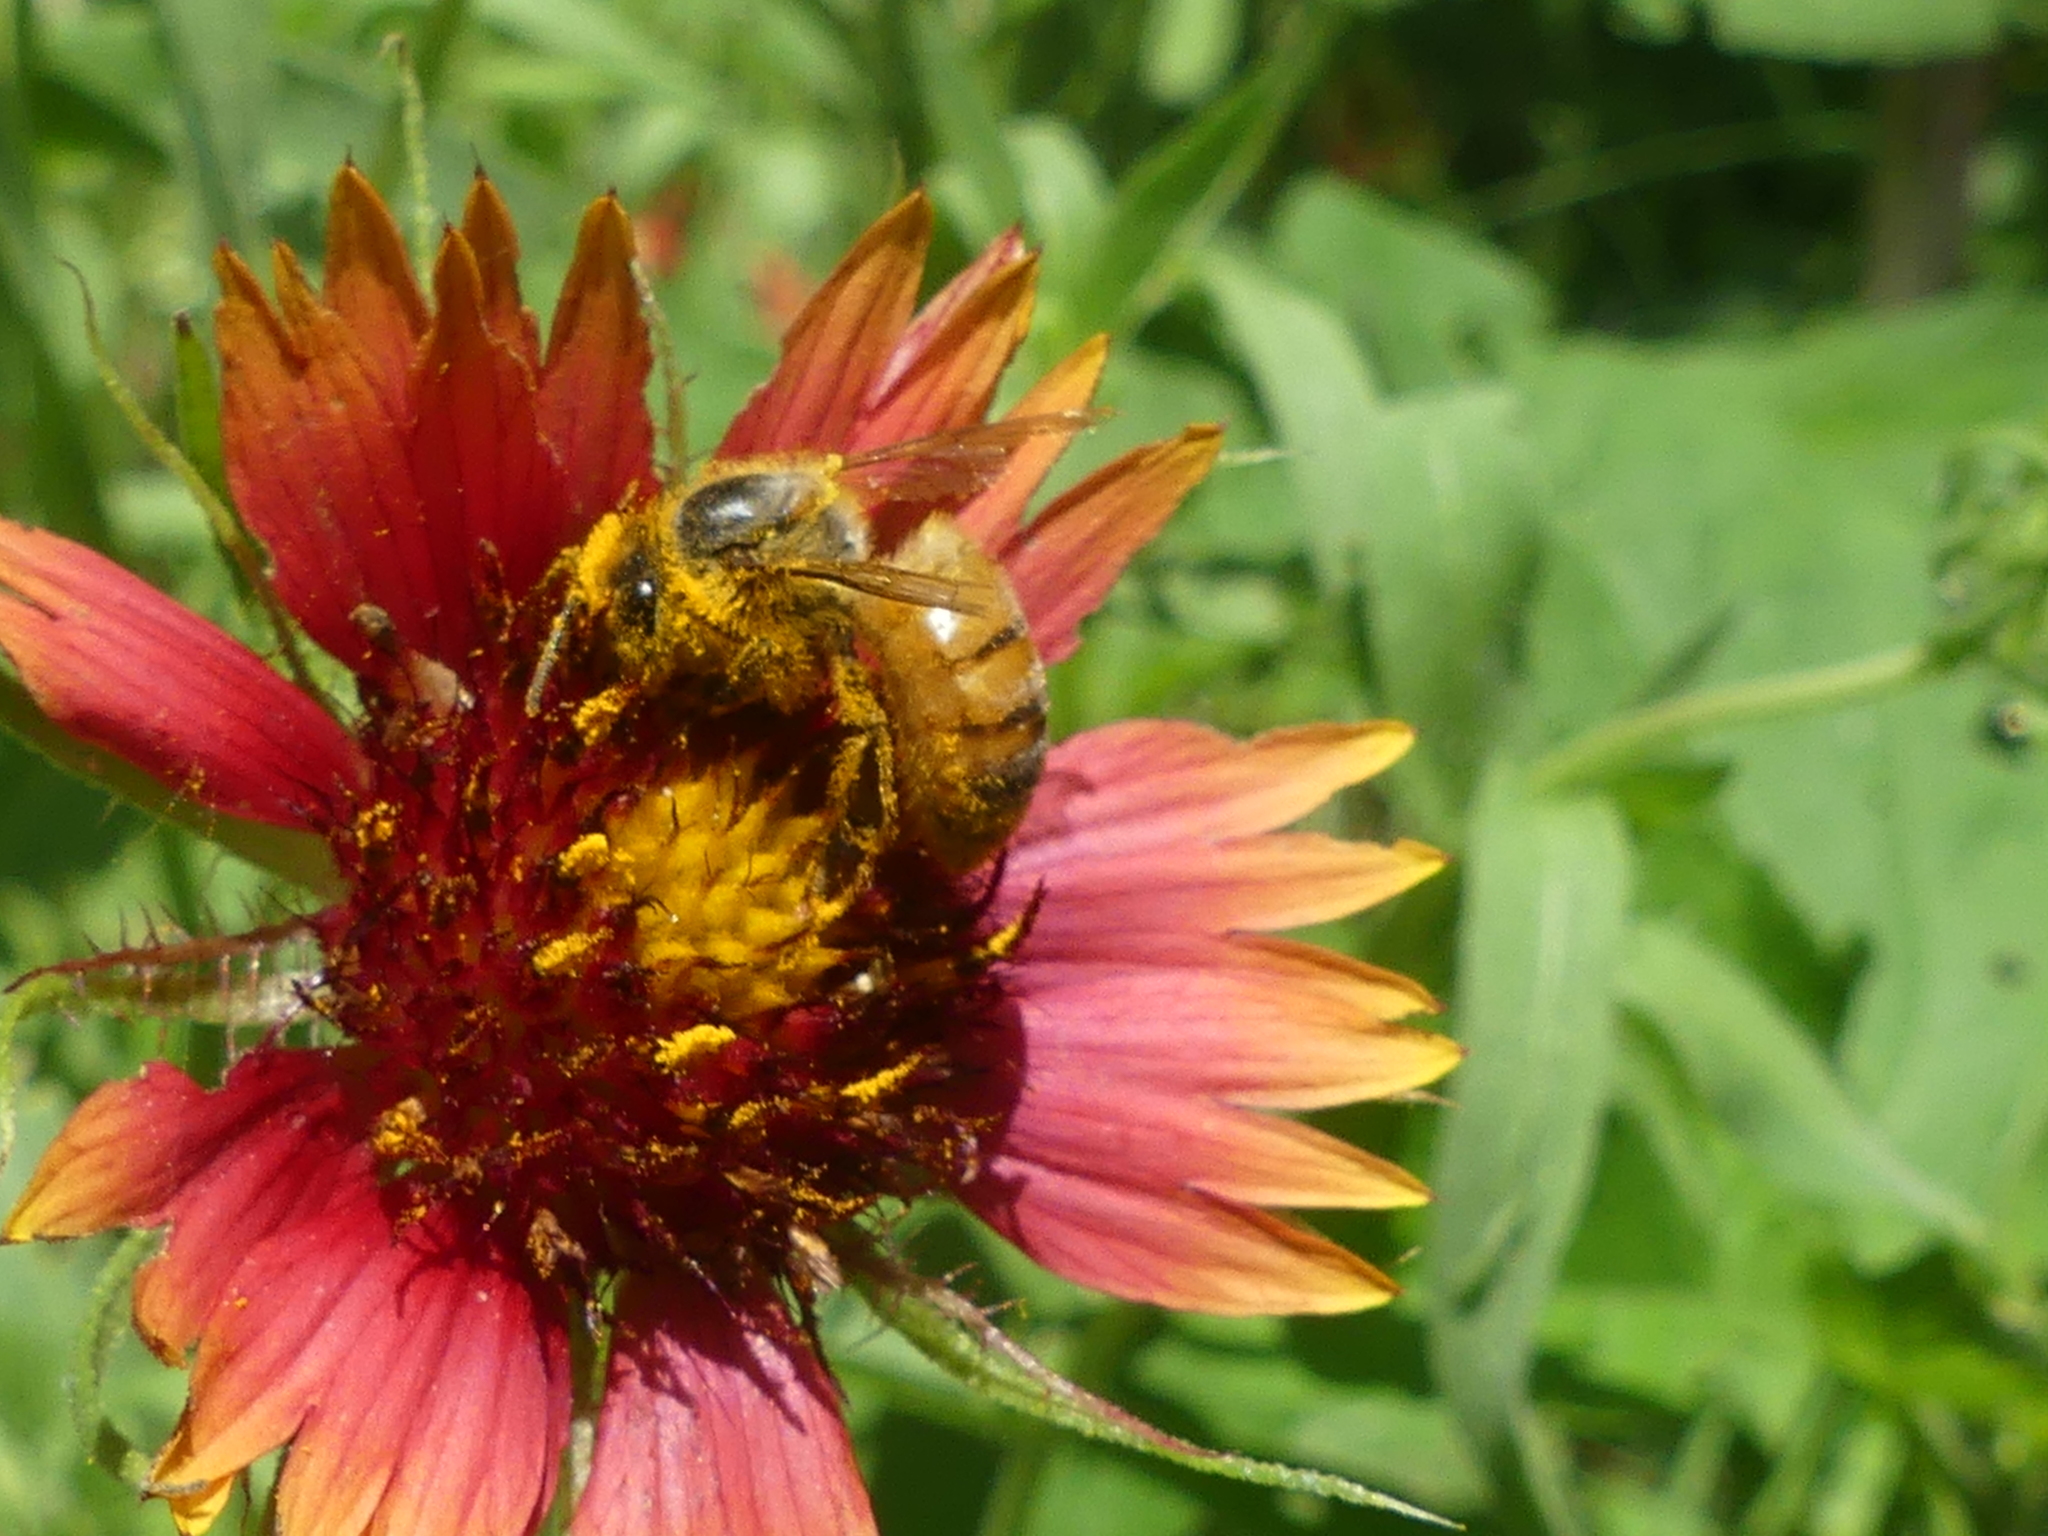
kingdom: Animalia
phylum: Arthropoda
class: Insecta
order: Hymenoptera
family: Apidae
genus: Apis
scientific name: Apis mellifera
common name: Honey bee
